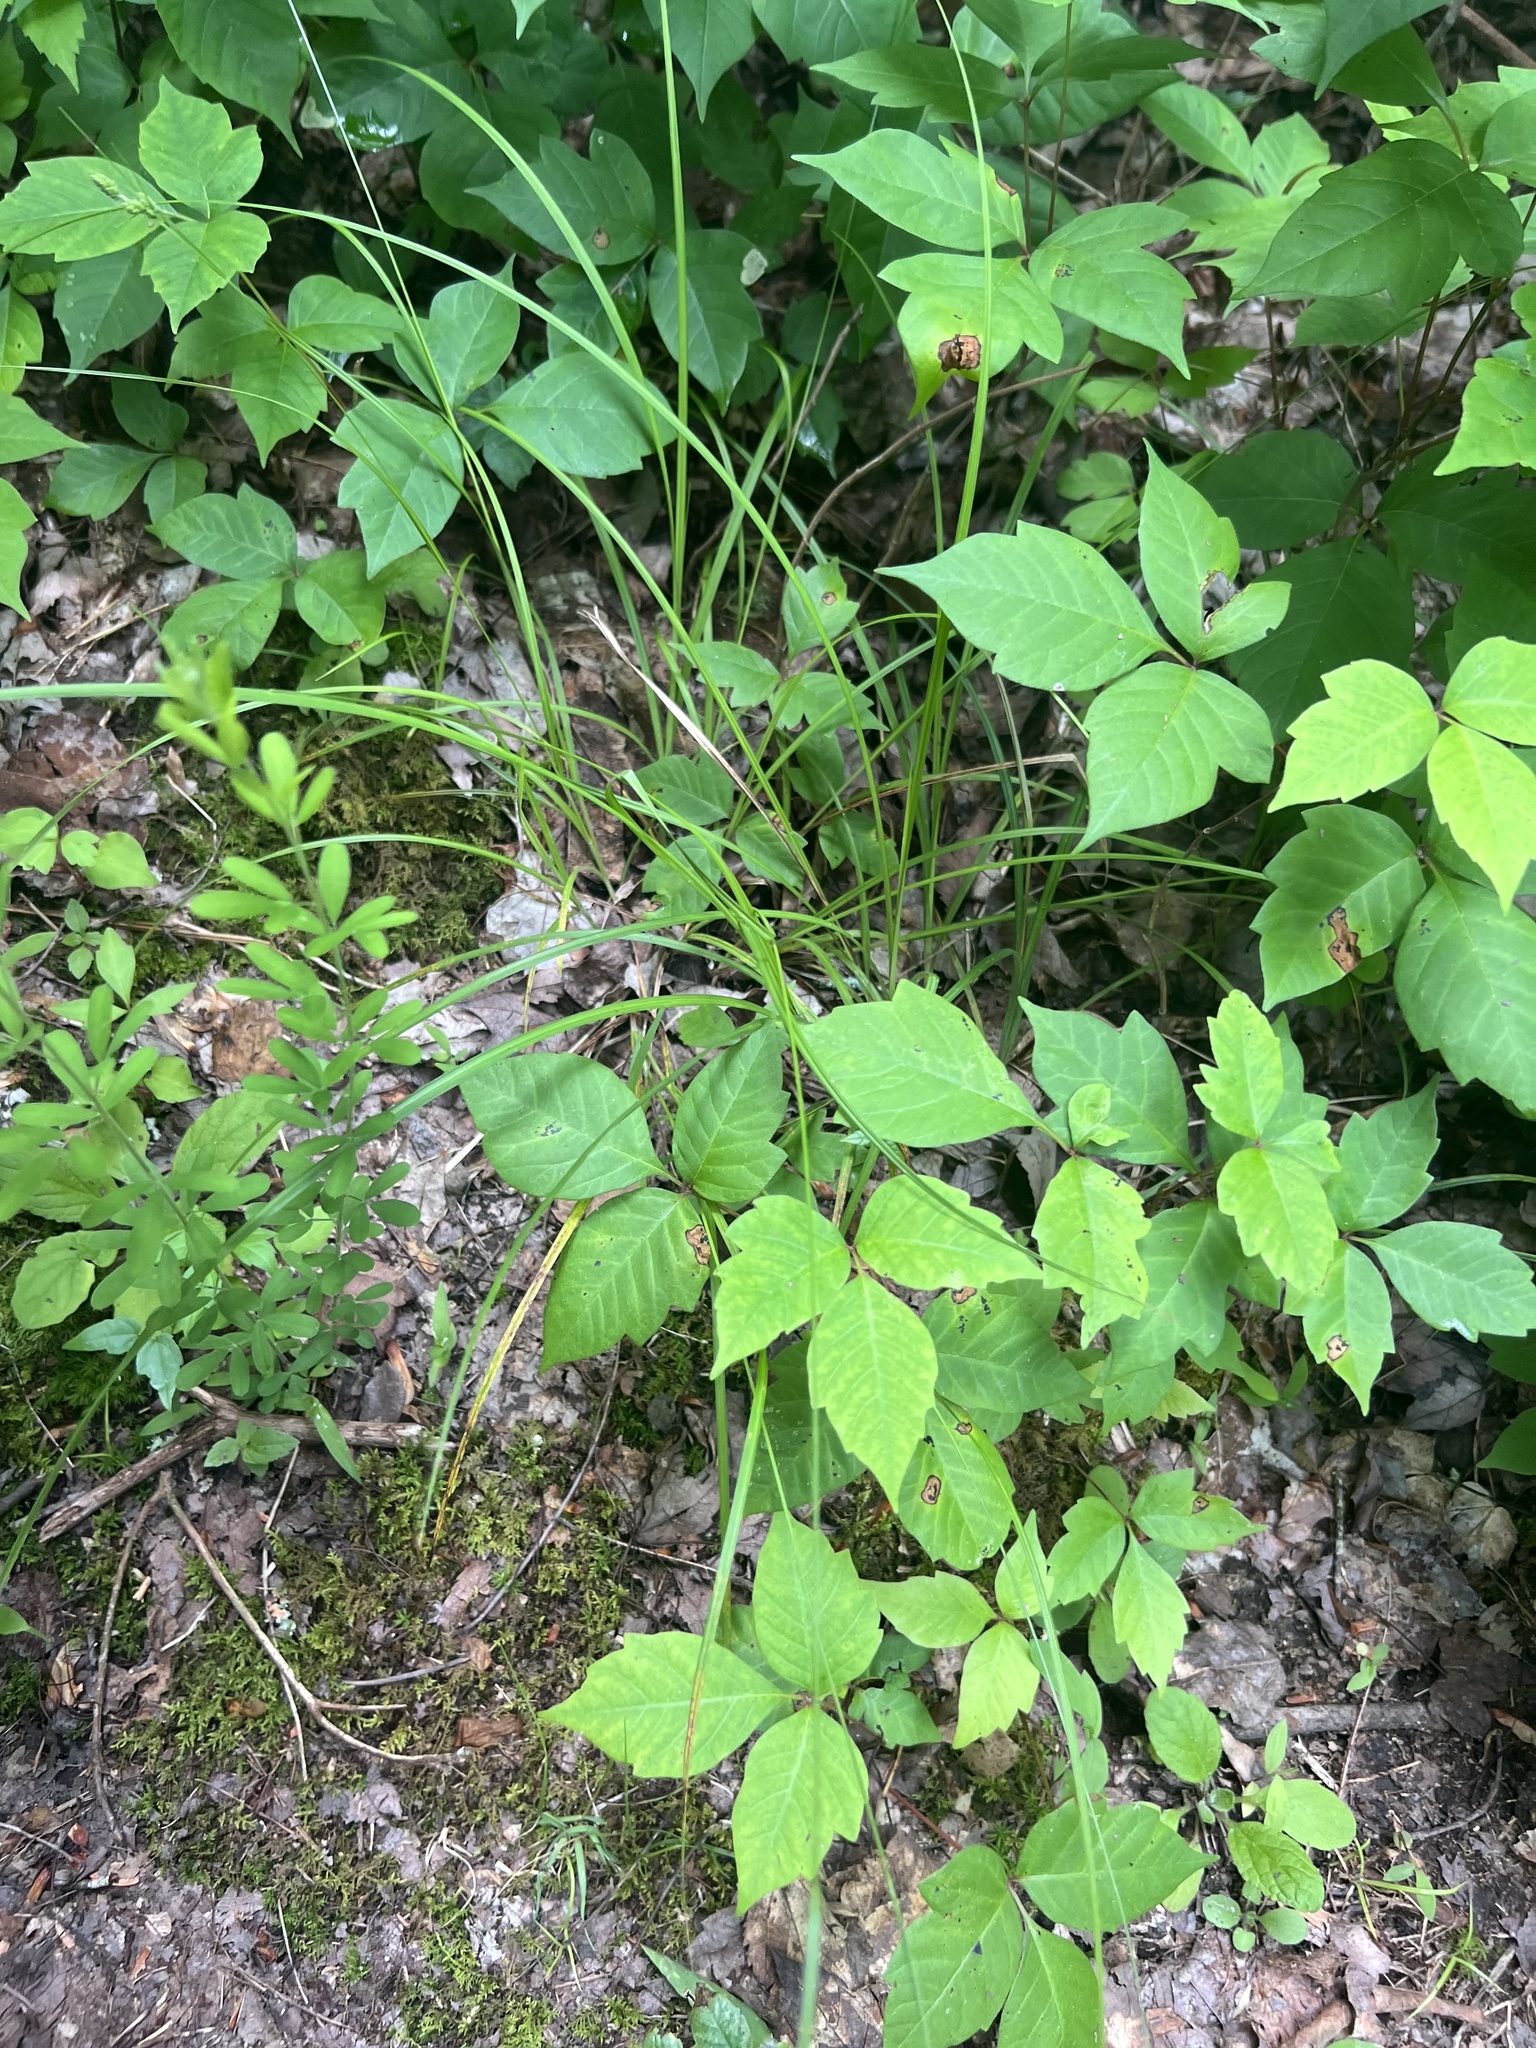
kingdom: Plantae
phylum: Tracheophyta
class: Liliopsida
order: Poales
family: Cyperaceae
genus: Carex
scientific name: Carex swanii
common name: Downy green sedge
